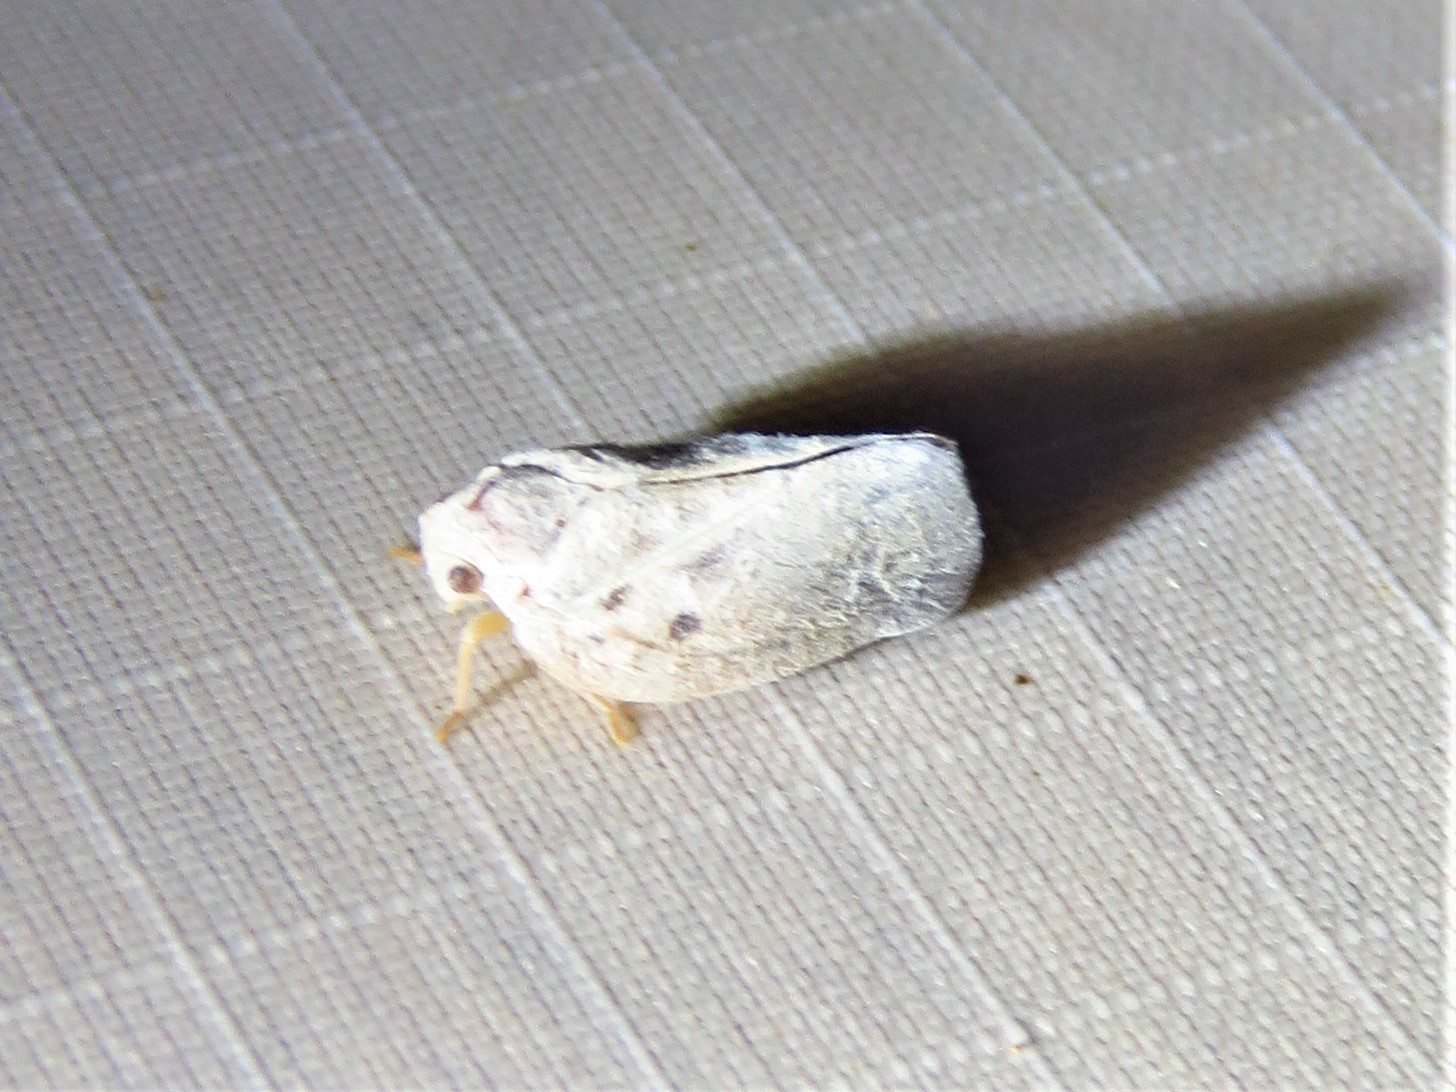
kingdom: Animalia
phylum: Arthropoda
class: Insecta
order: Hemiptera
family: Flatidae
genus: Metcalfa
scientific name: Metcalfa pruinosa
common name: Citrus flatid planthopper
